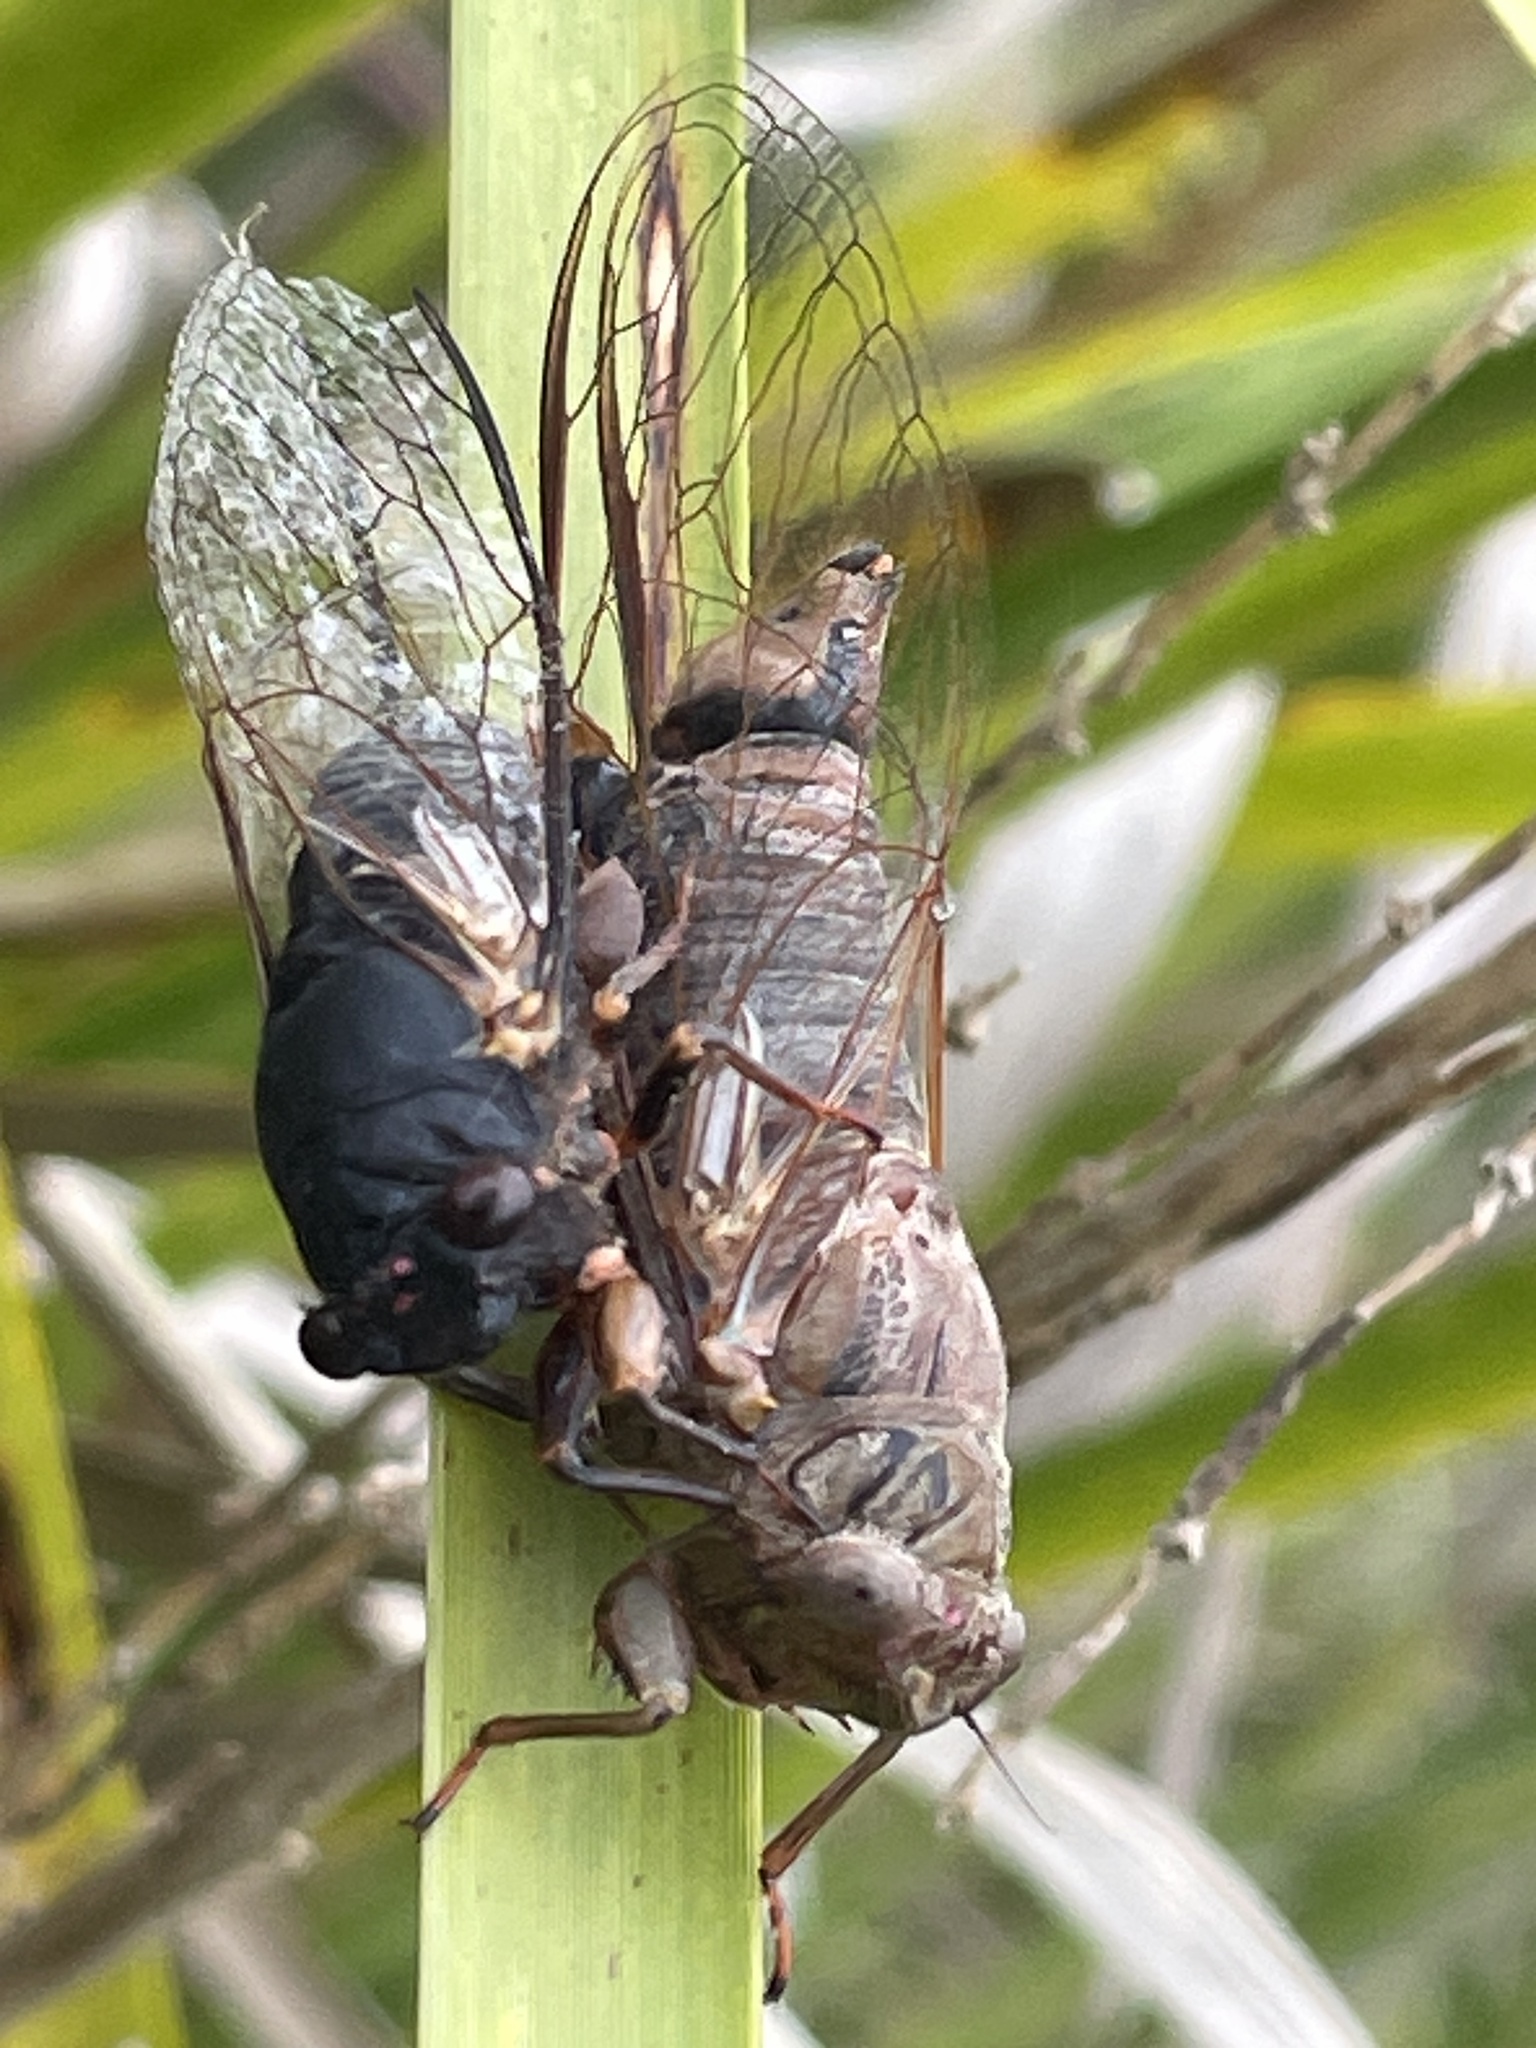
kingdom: Animalia
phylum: Arthropoda
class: Insecta
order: Hemiptera
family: Cicadidae
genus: Birrima
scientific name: Birrima castanea
